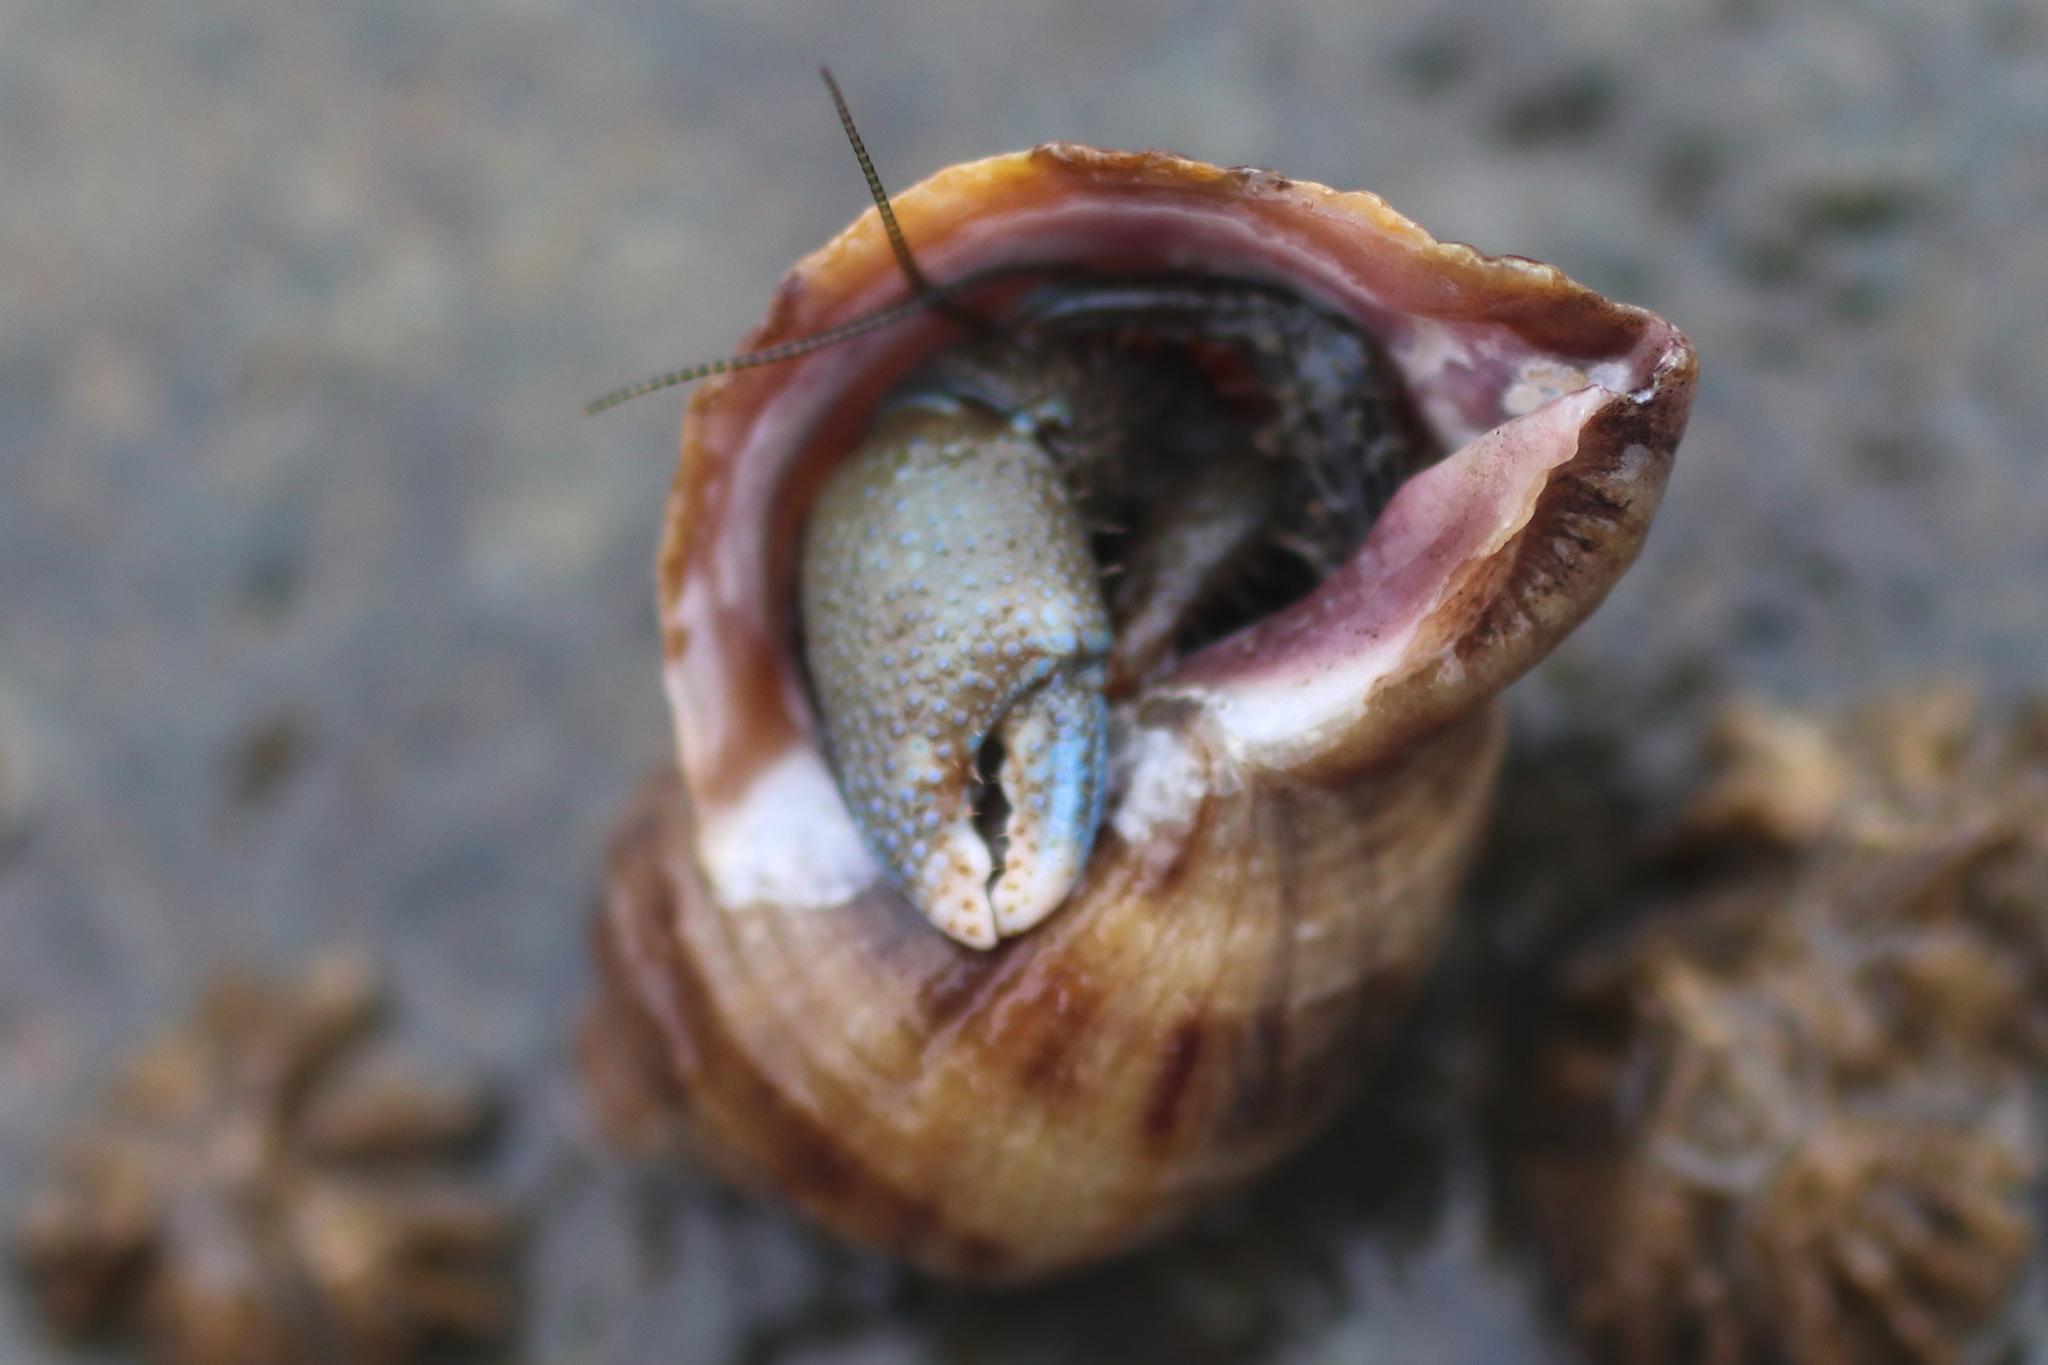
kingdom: Animalia
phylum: Arthropoda
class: Malacostraca
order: Decapoda
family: Paguridae
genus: Pagurus
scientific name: Pagurus hirsutiusculus
